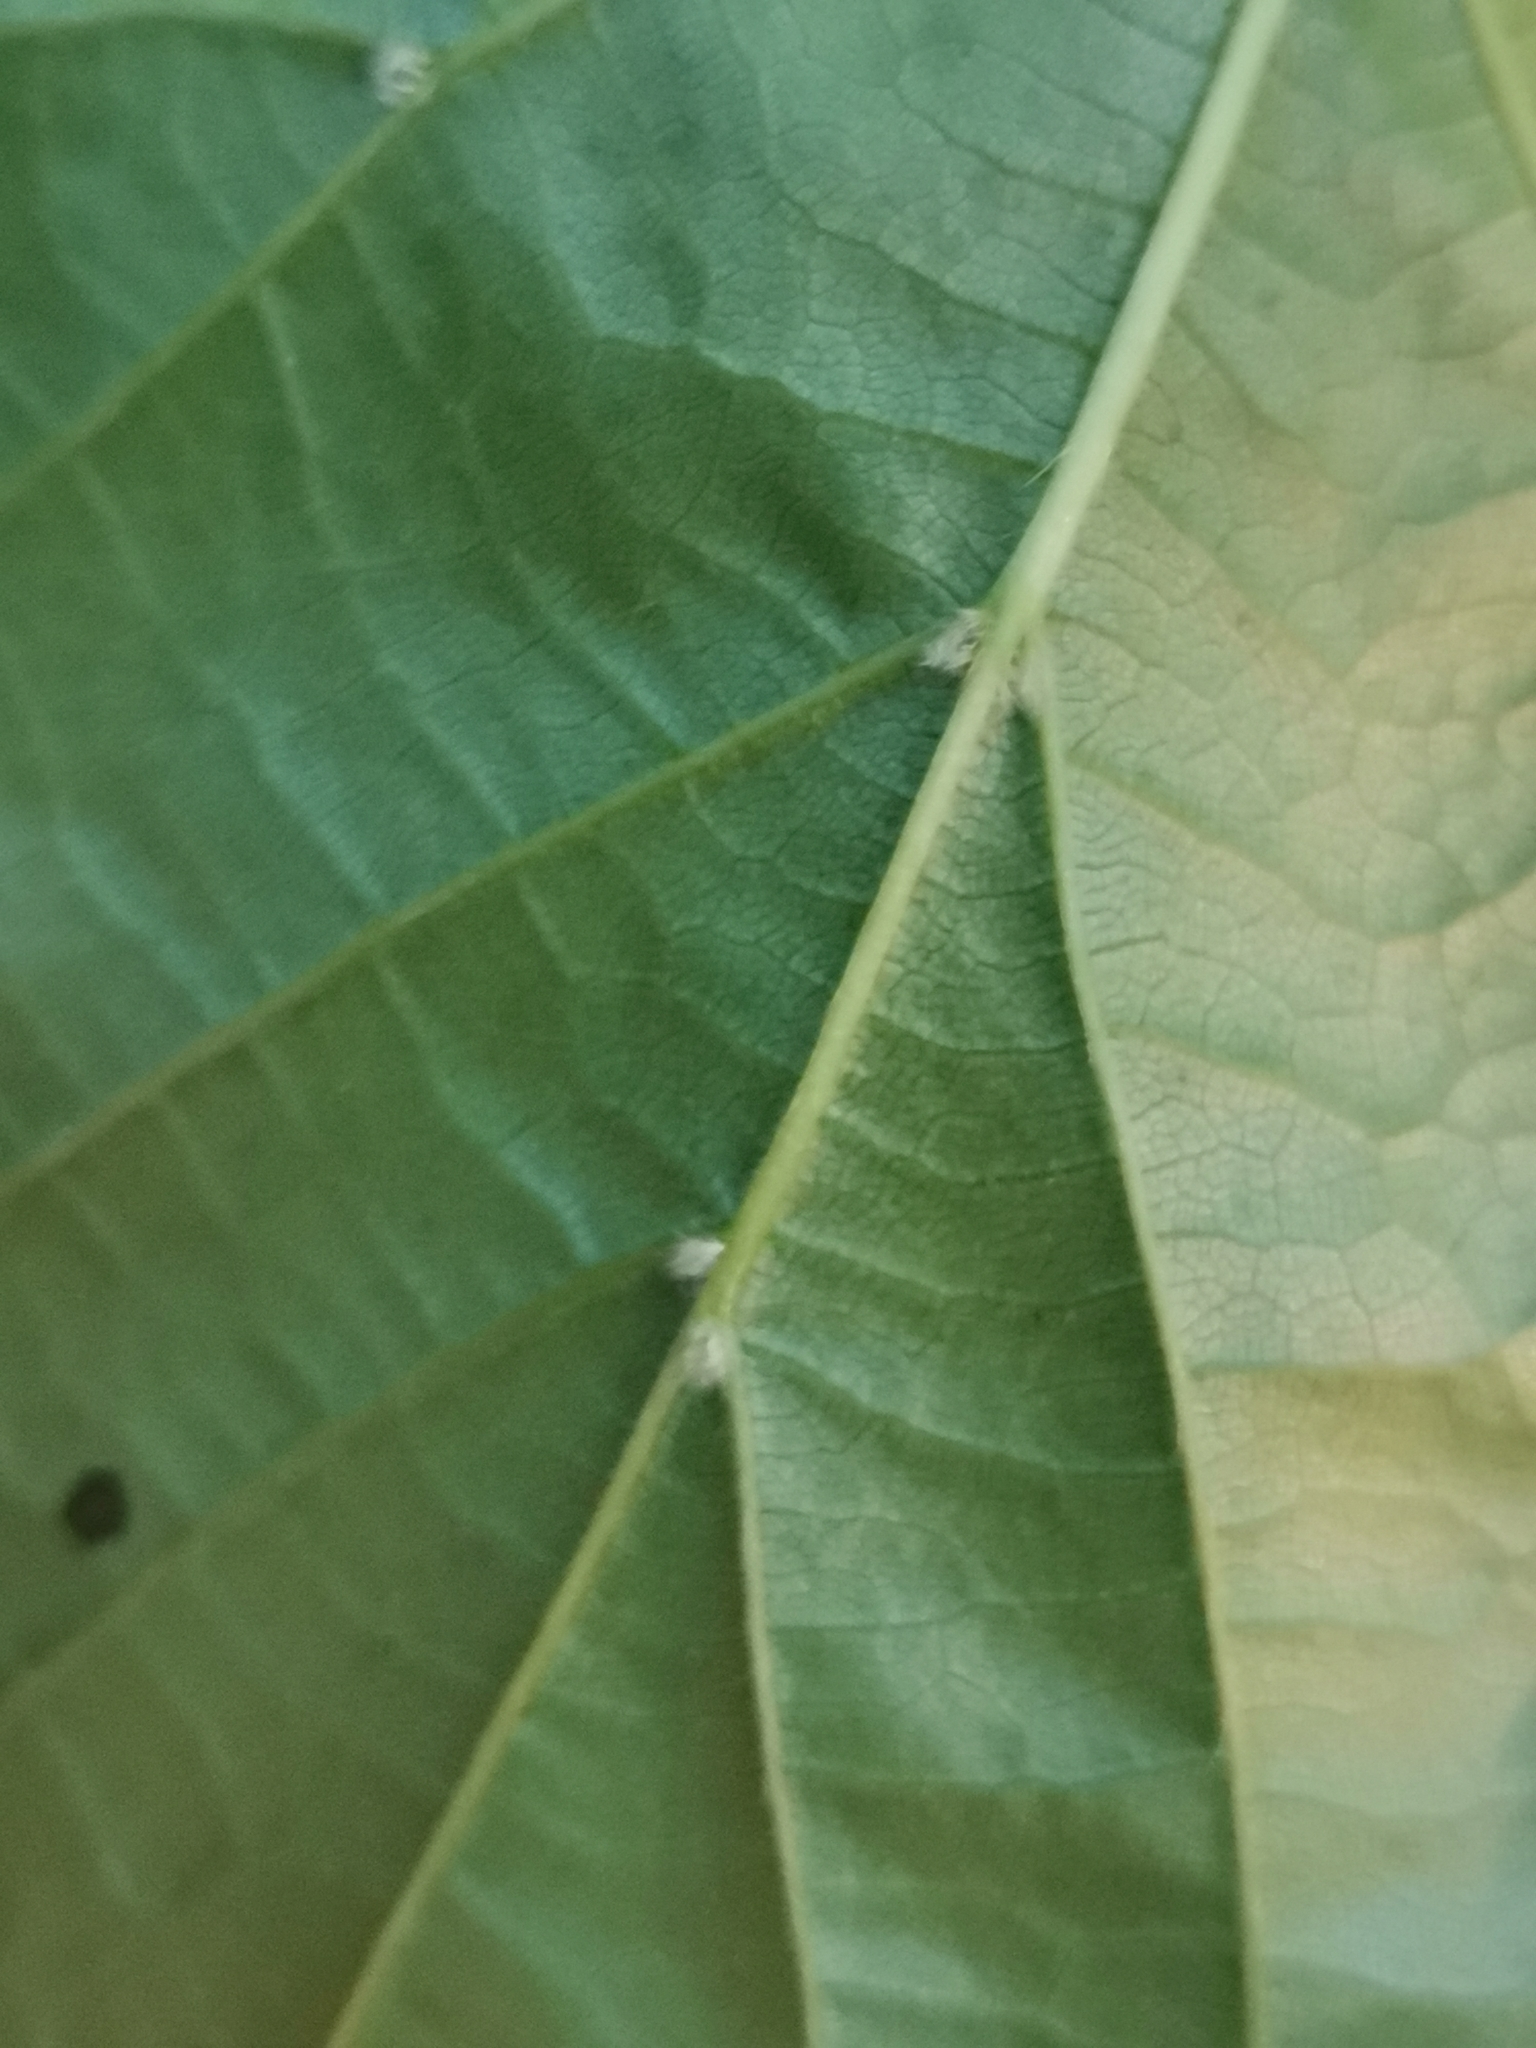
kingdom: Plantae
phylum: Tracheophyta
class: Magnoliopsida
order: Malvales
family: Malvaceae
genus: Tilia
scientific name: Tilia platyphyllos
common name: Large-leaved lime
